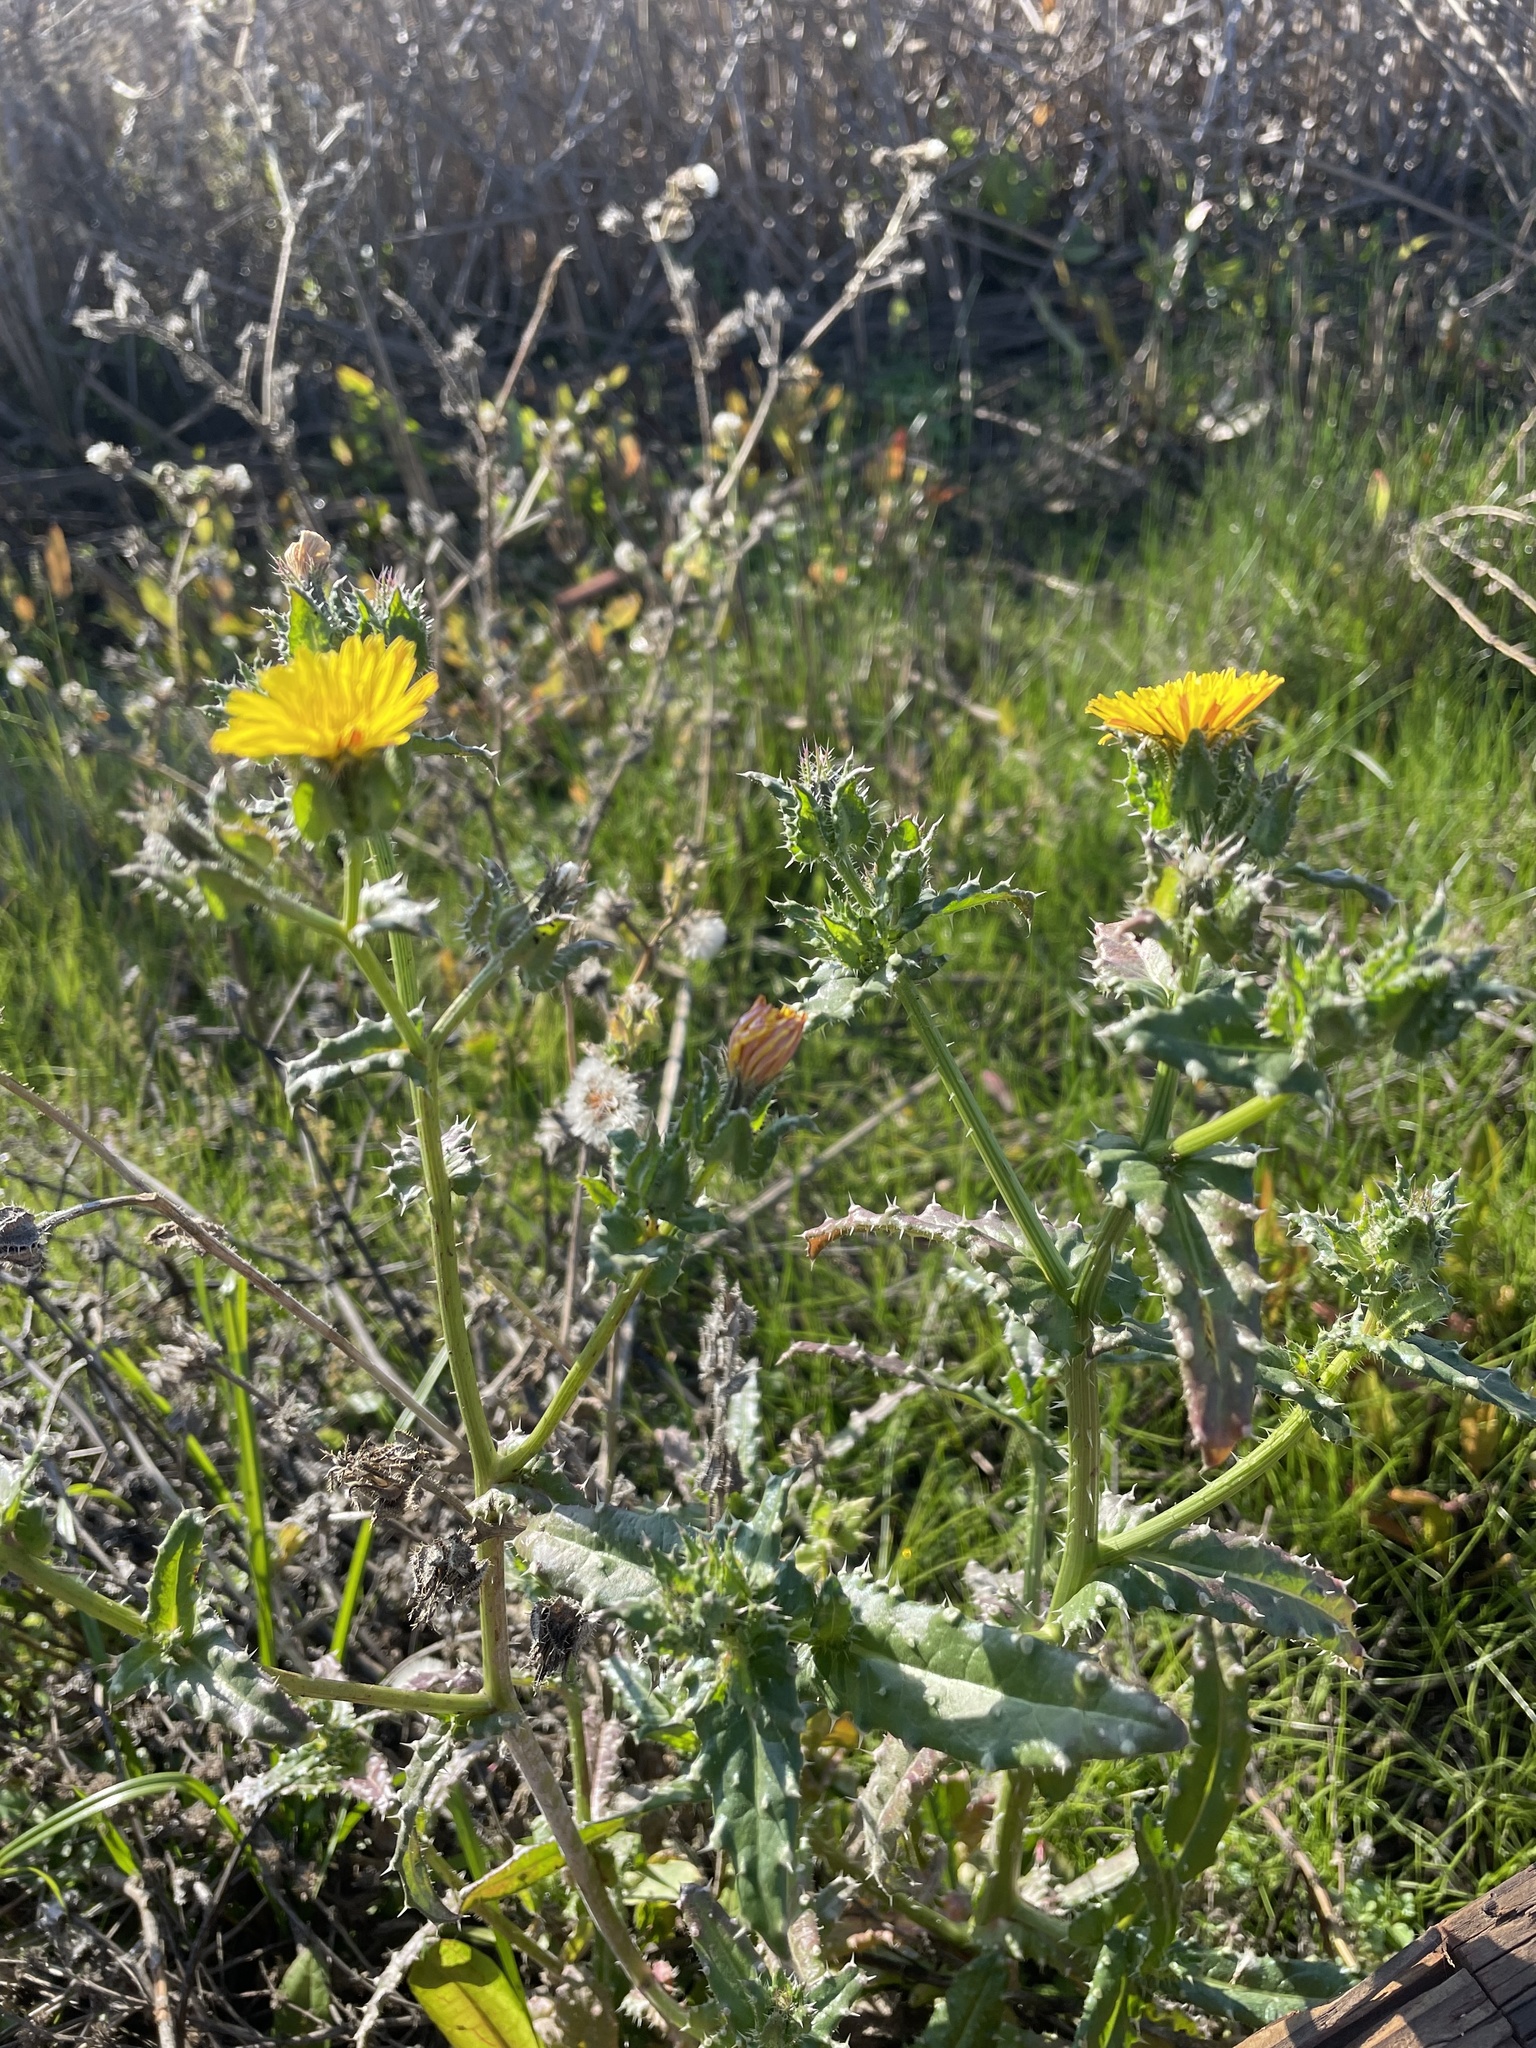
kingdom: Plantae
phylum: Tracheophyta
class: Magnoliopsida
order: Asterales
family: Asteraceae
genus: Helminthotheca
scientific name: Helminthotheca echioides
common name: Ox-tongue
